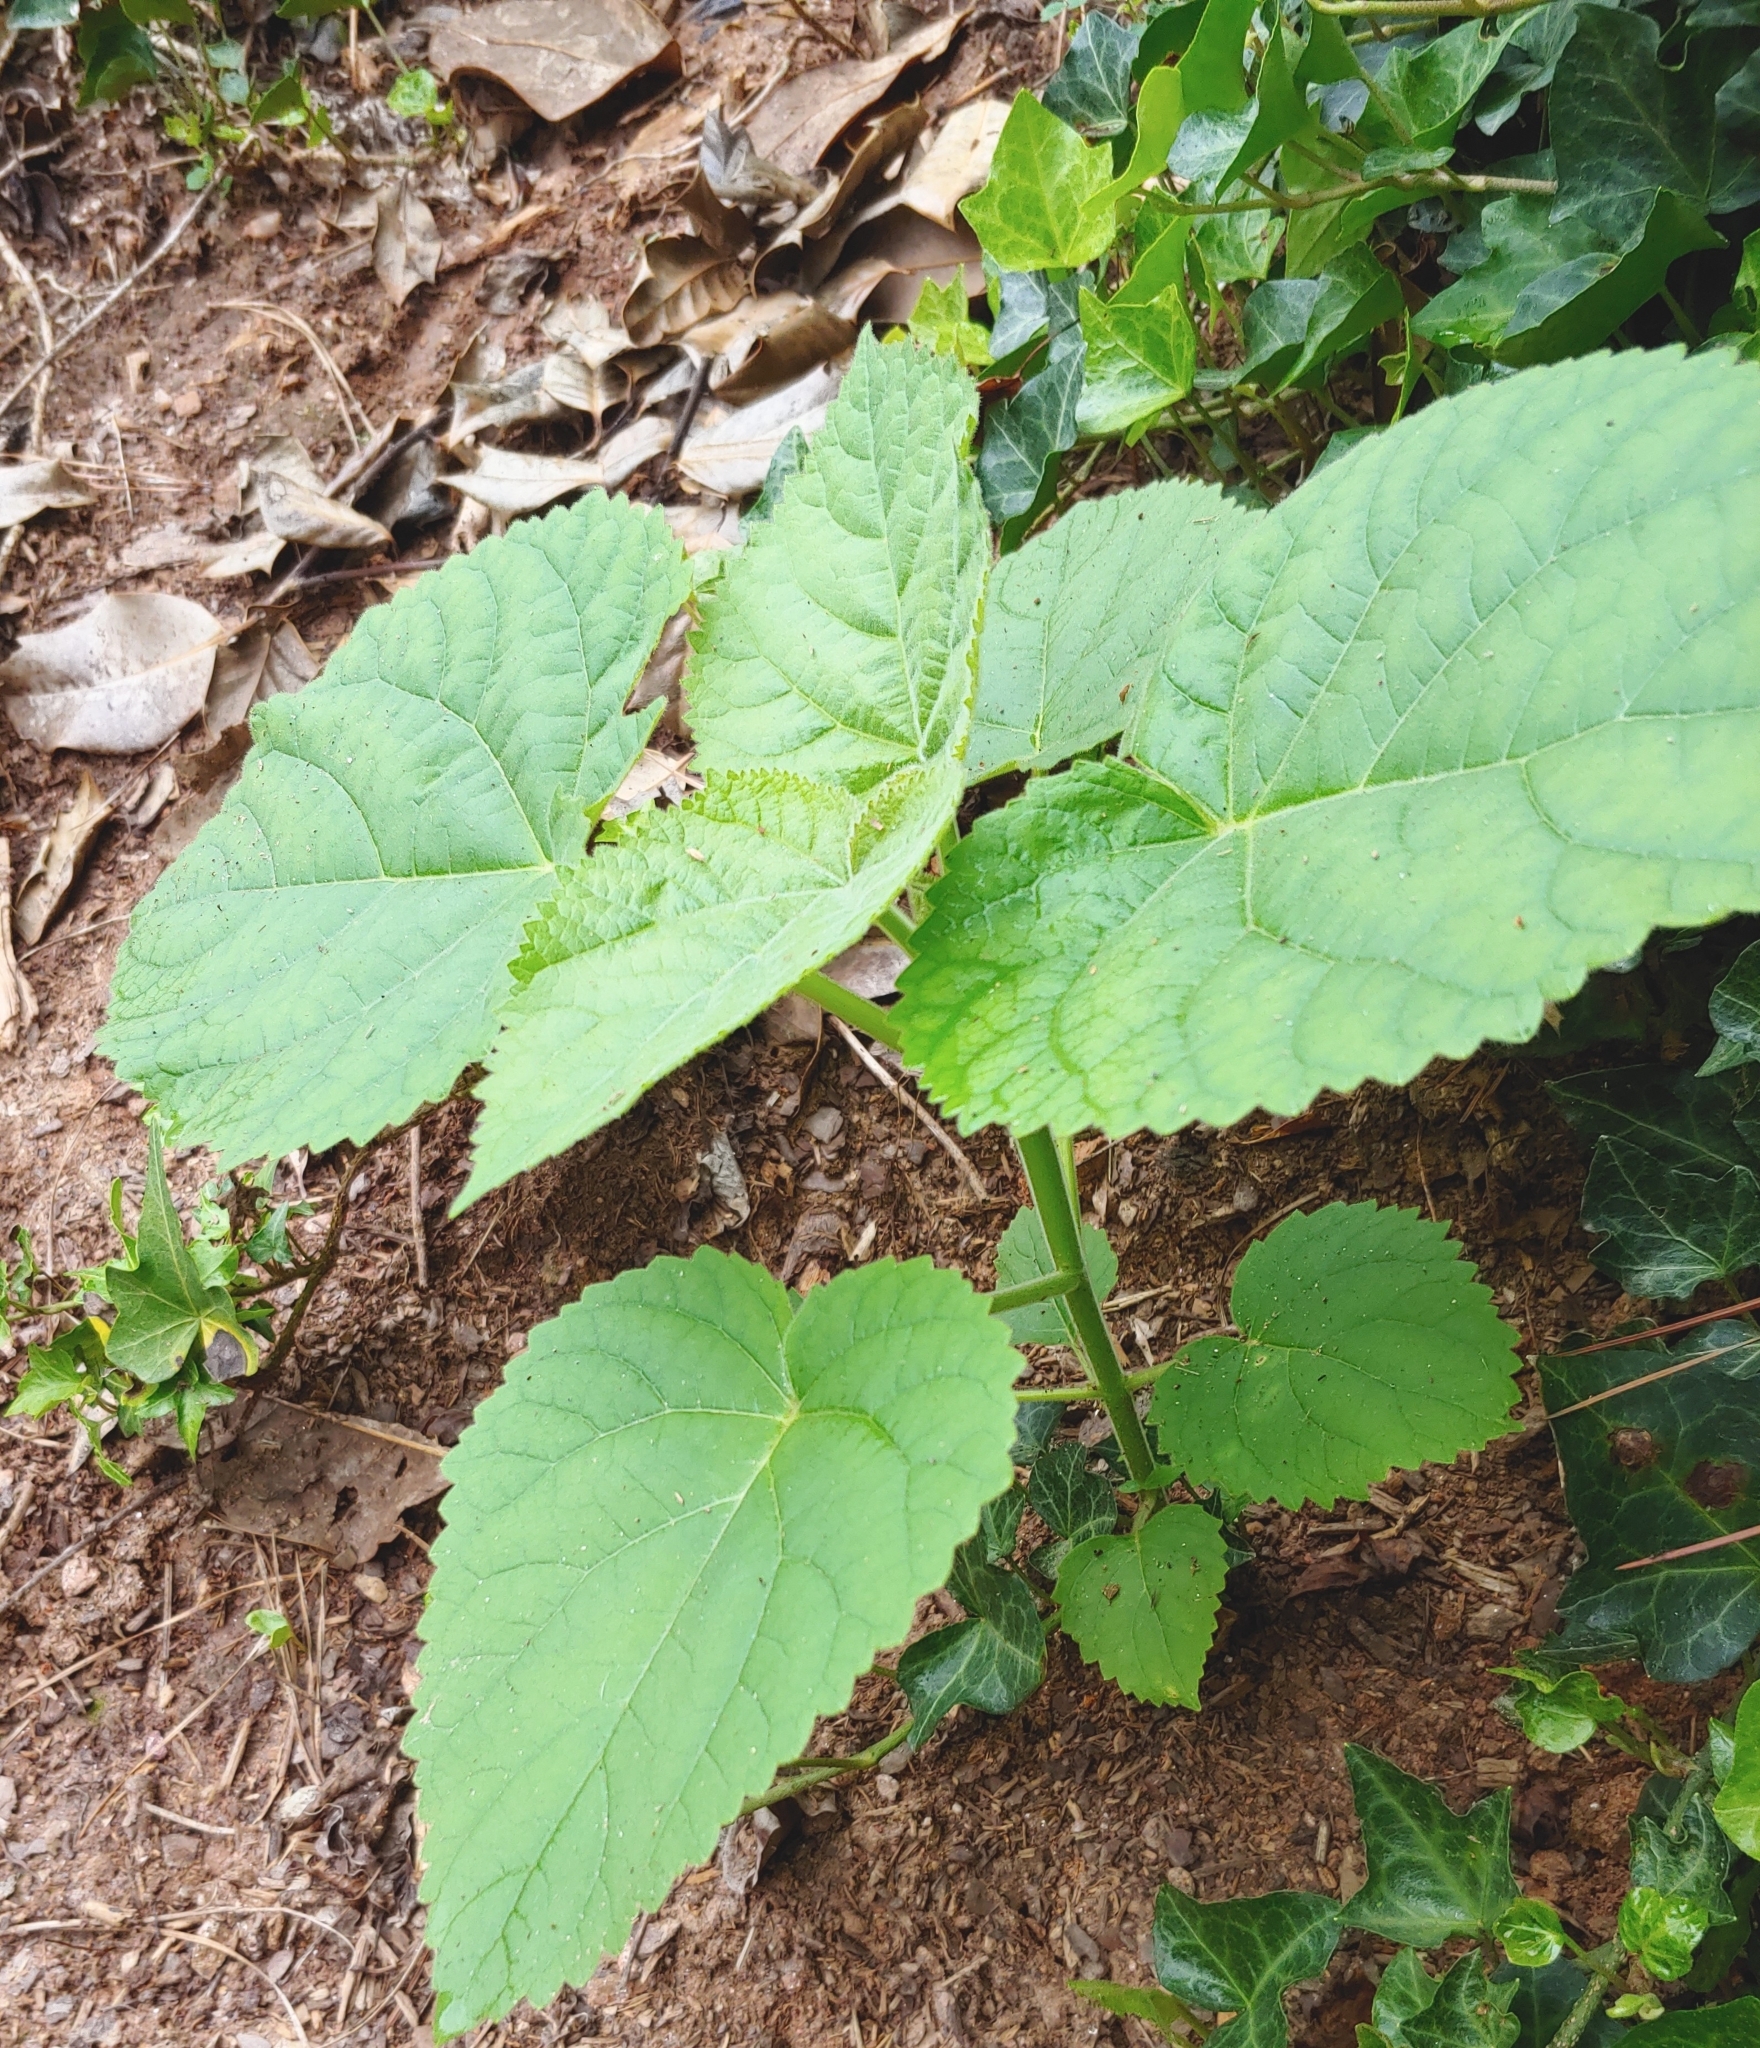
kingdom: Plantae
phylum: Tracheophyta
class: Magnoliopsida
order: Lamiales
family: Paulowniaceae
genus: Paulownia
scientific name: Paulownia tomentosa
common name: Foxglove-tree
